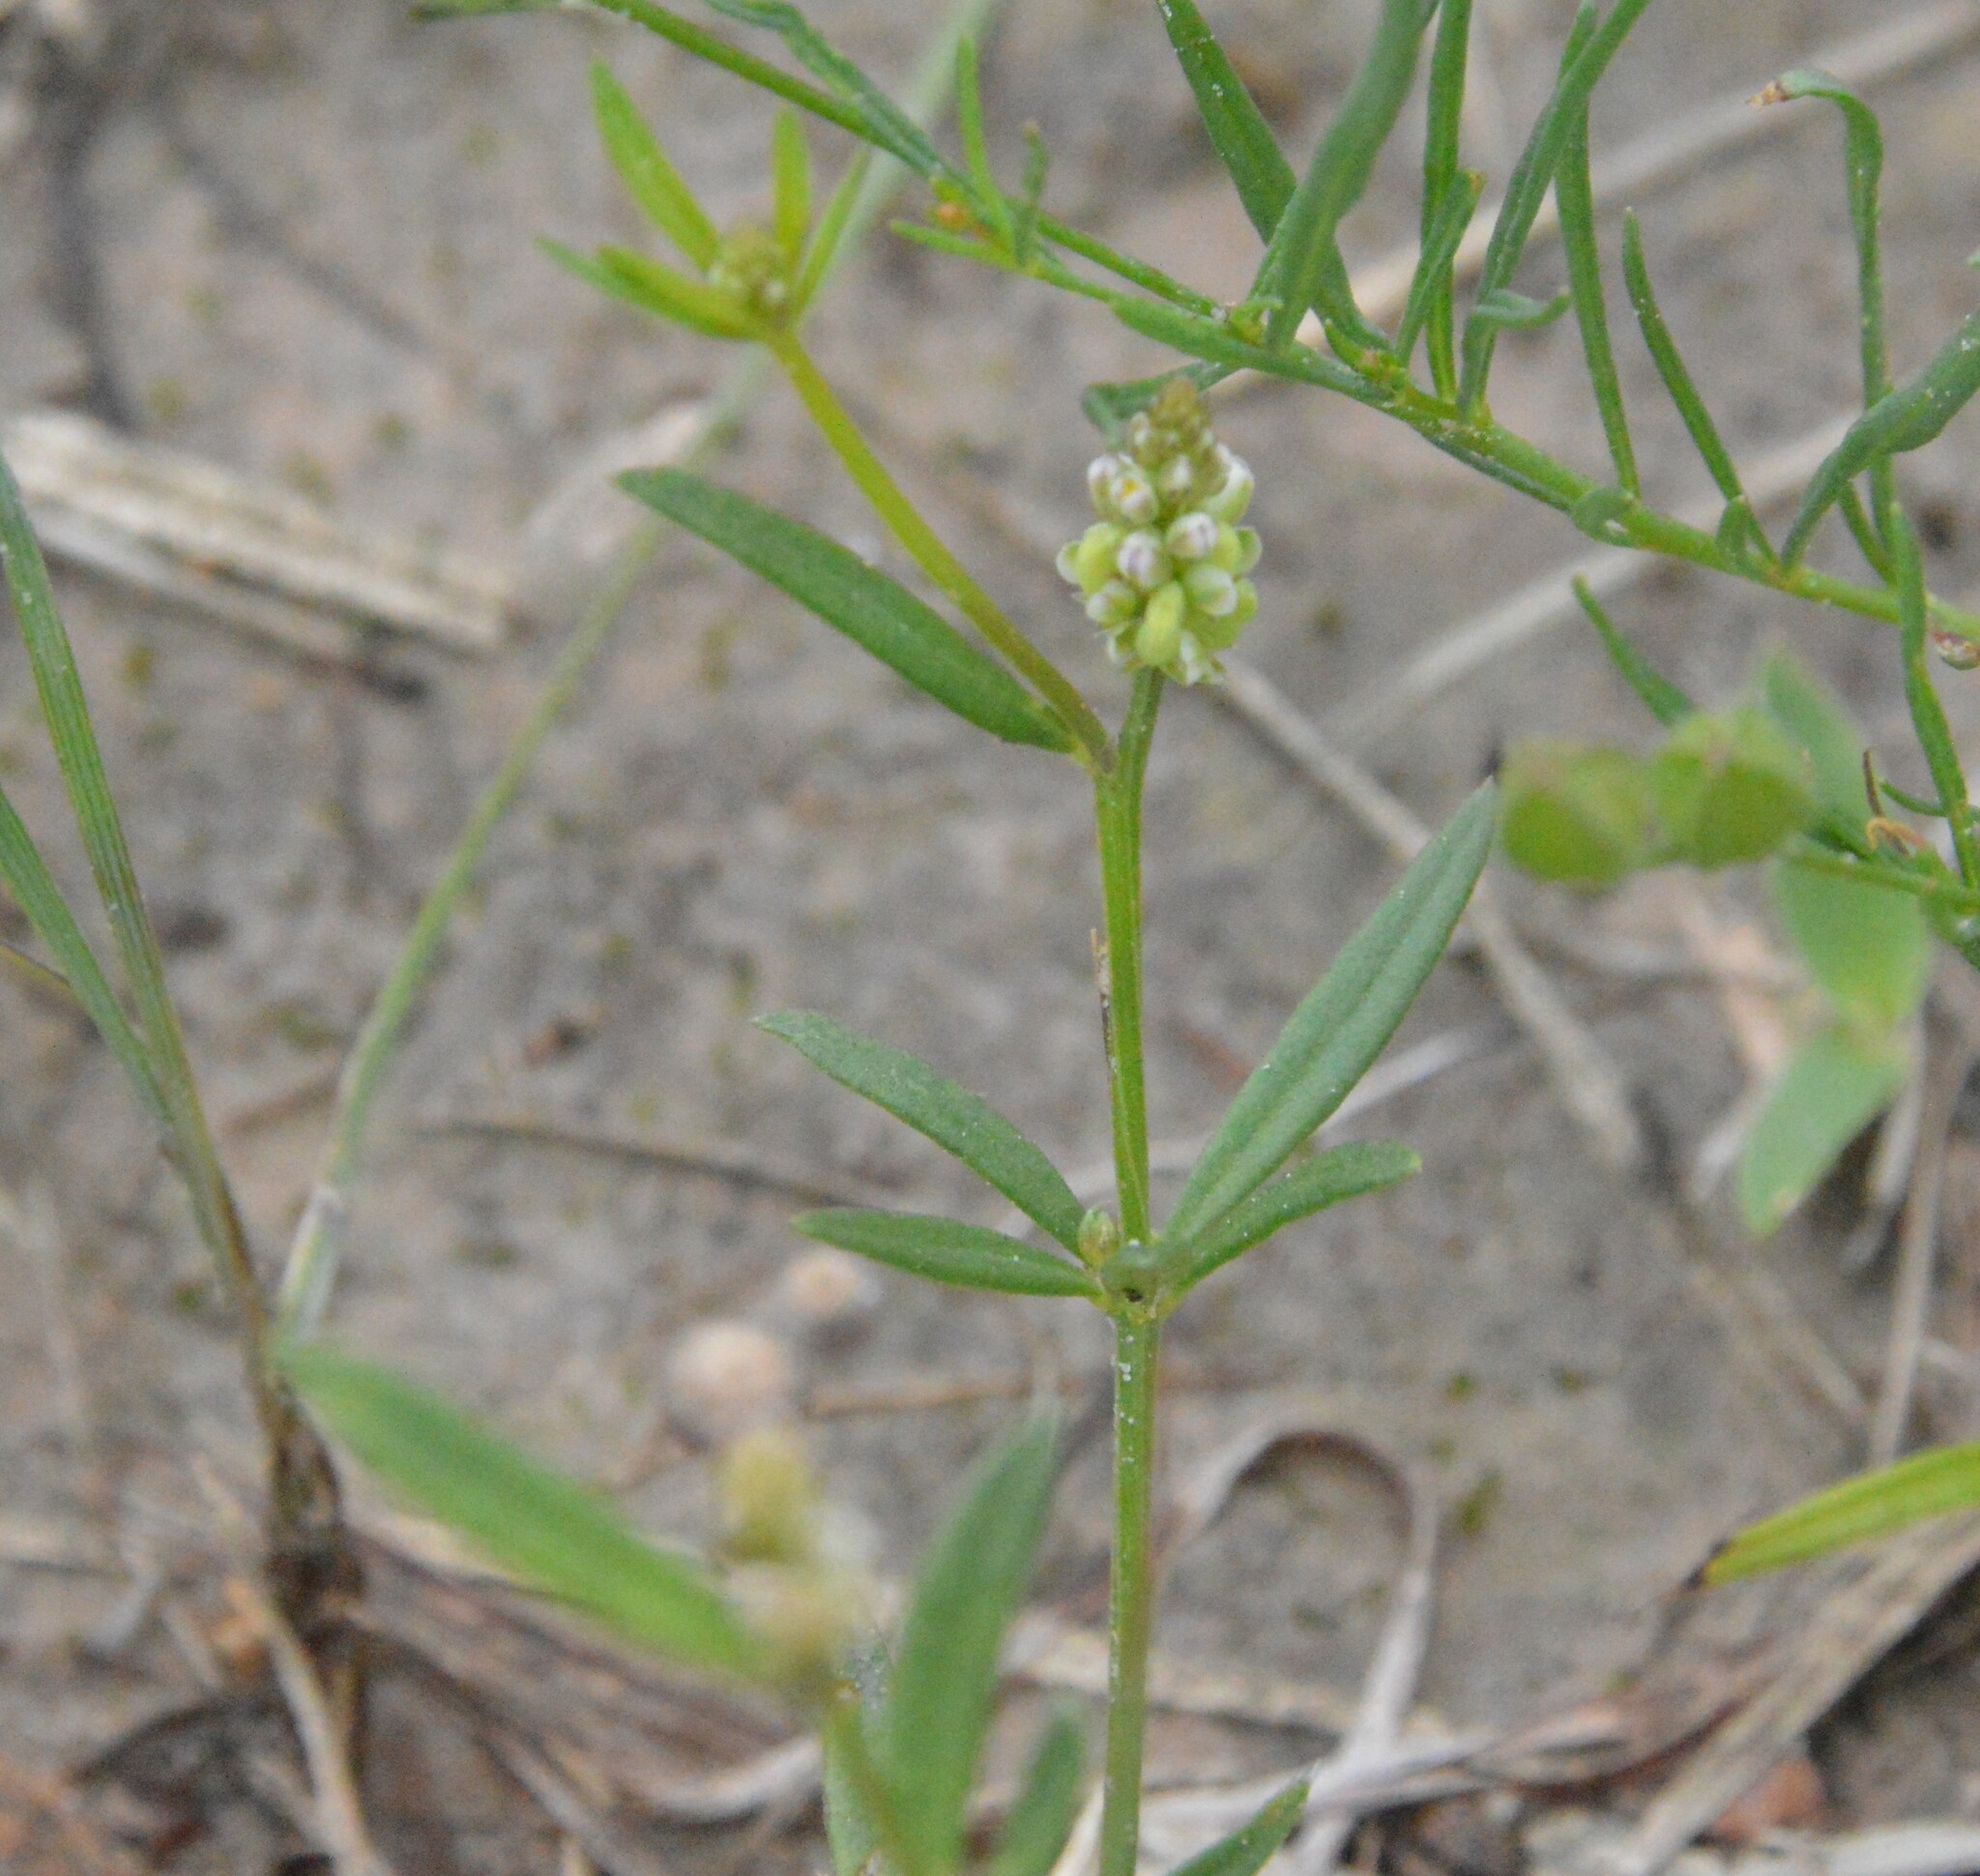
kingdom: Plantae
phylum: Tracheophyta
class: Magnoliopsida
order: Fabales
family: Polygalaceae
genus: Polygala
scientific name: Polygala verticillata
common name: Whorl milkwort
